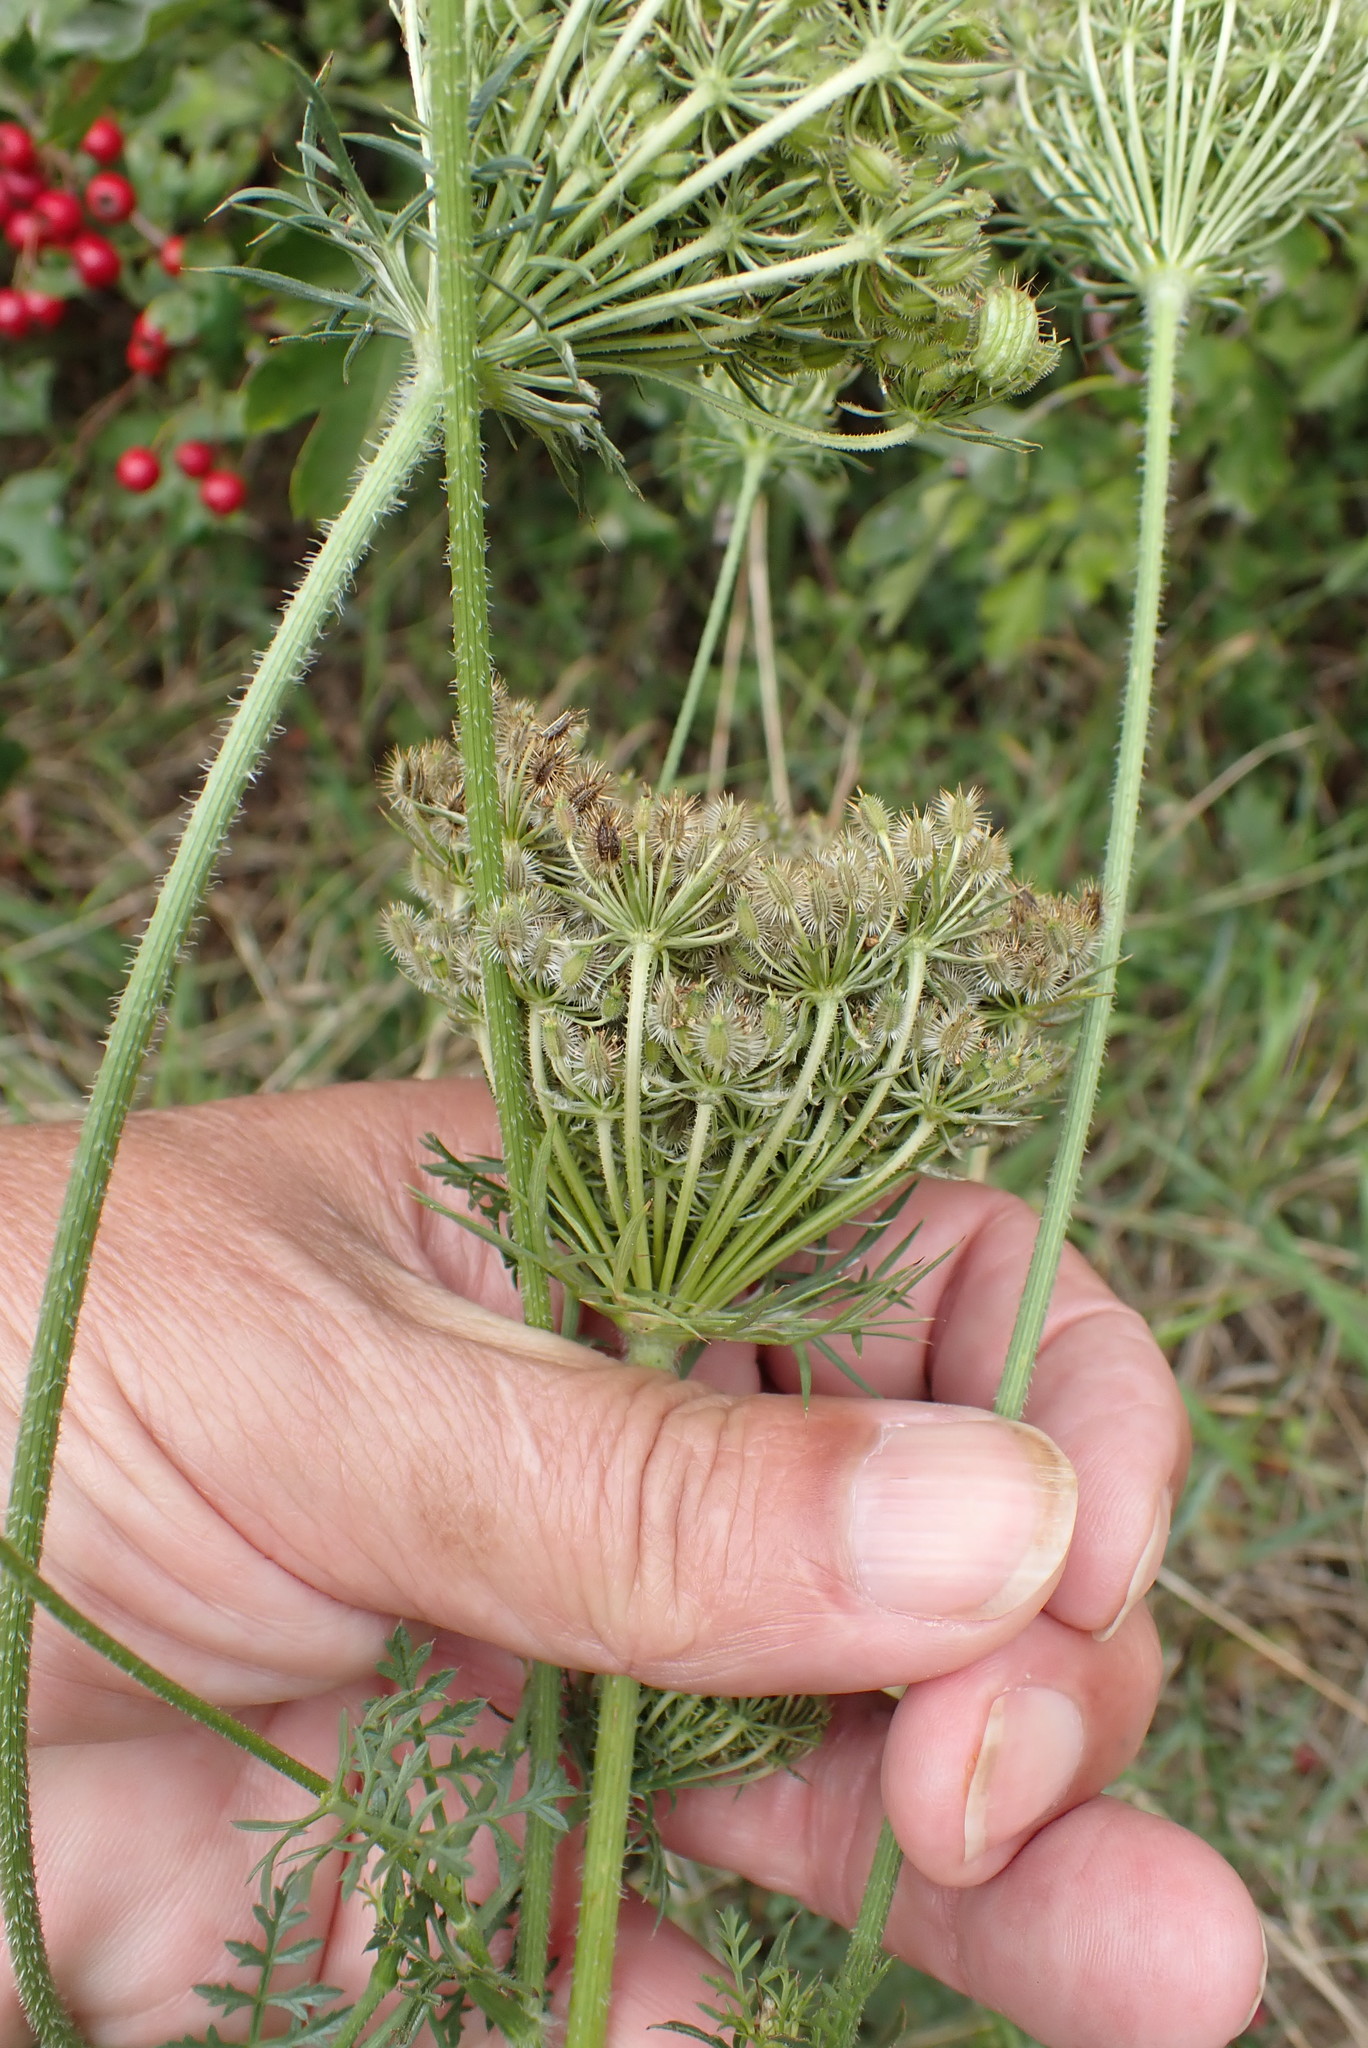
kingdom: Plantae
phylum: Tracheophyta
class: Magnoliopsida
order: Apiales
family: Apiaceae
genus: Daucus
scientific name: Daucus carota
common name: Wild carrot
